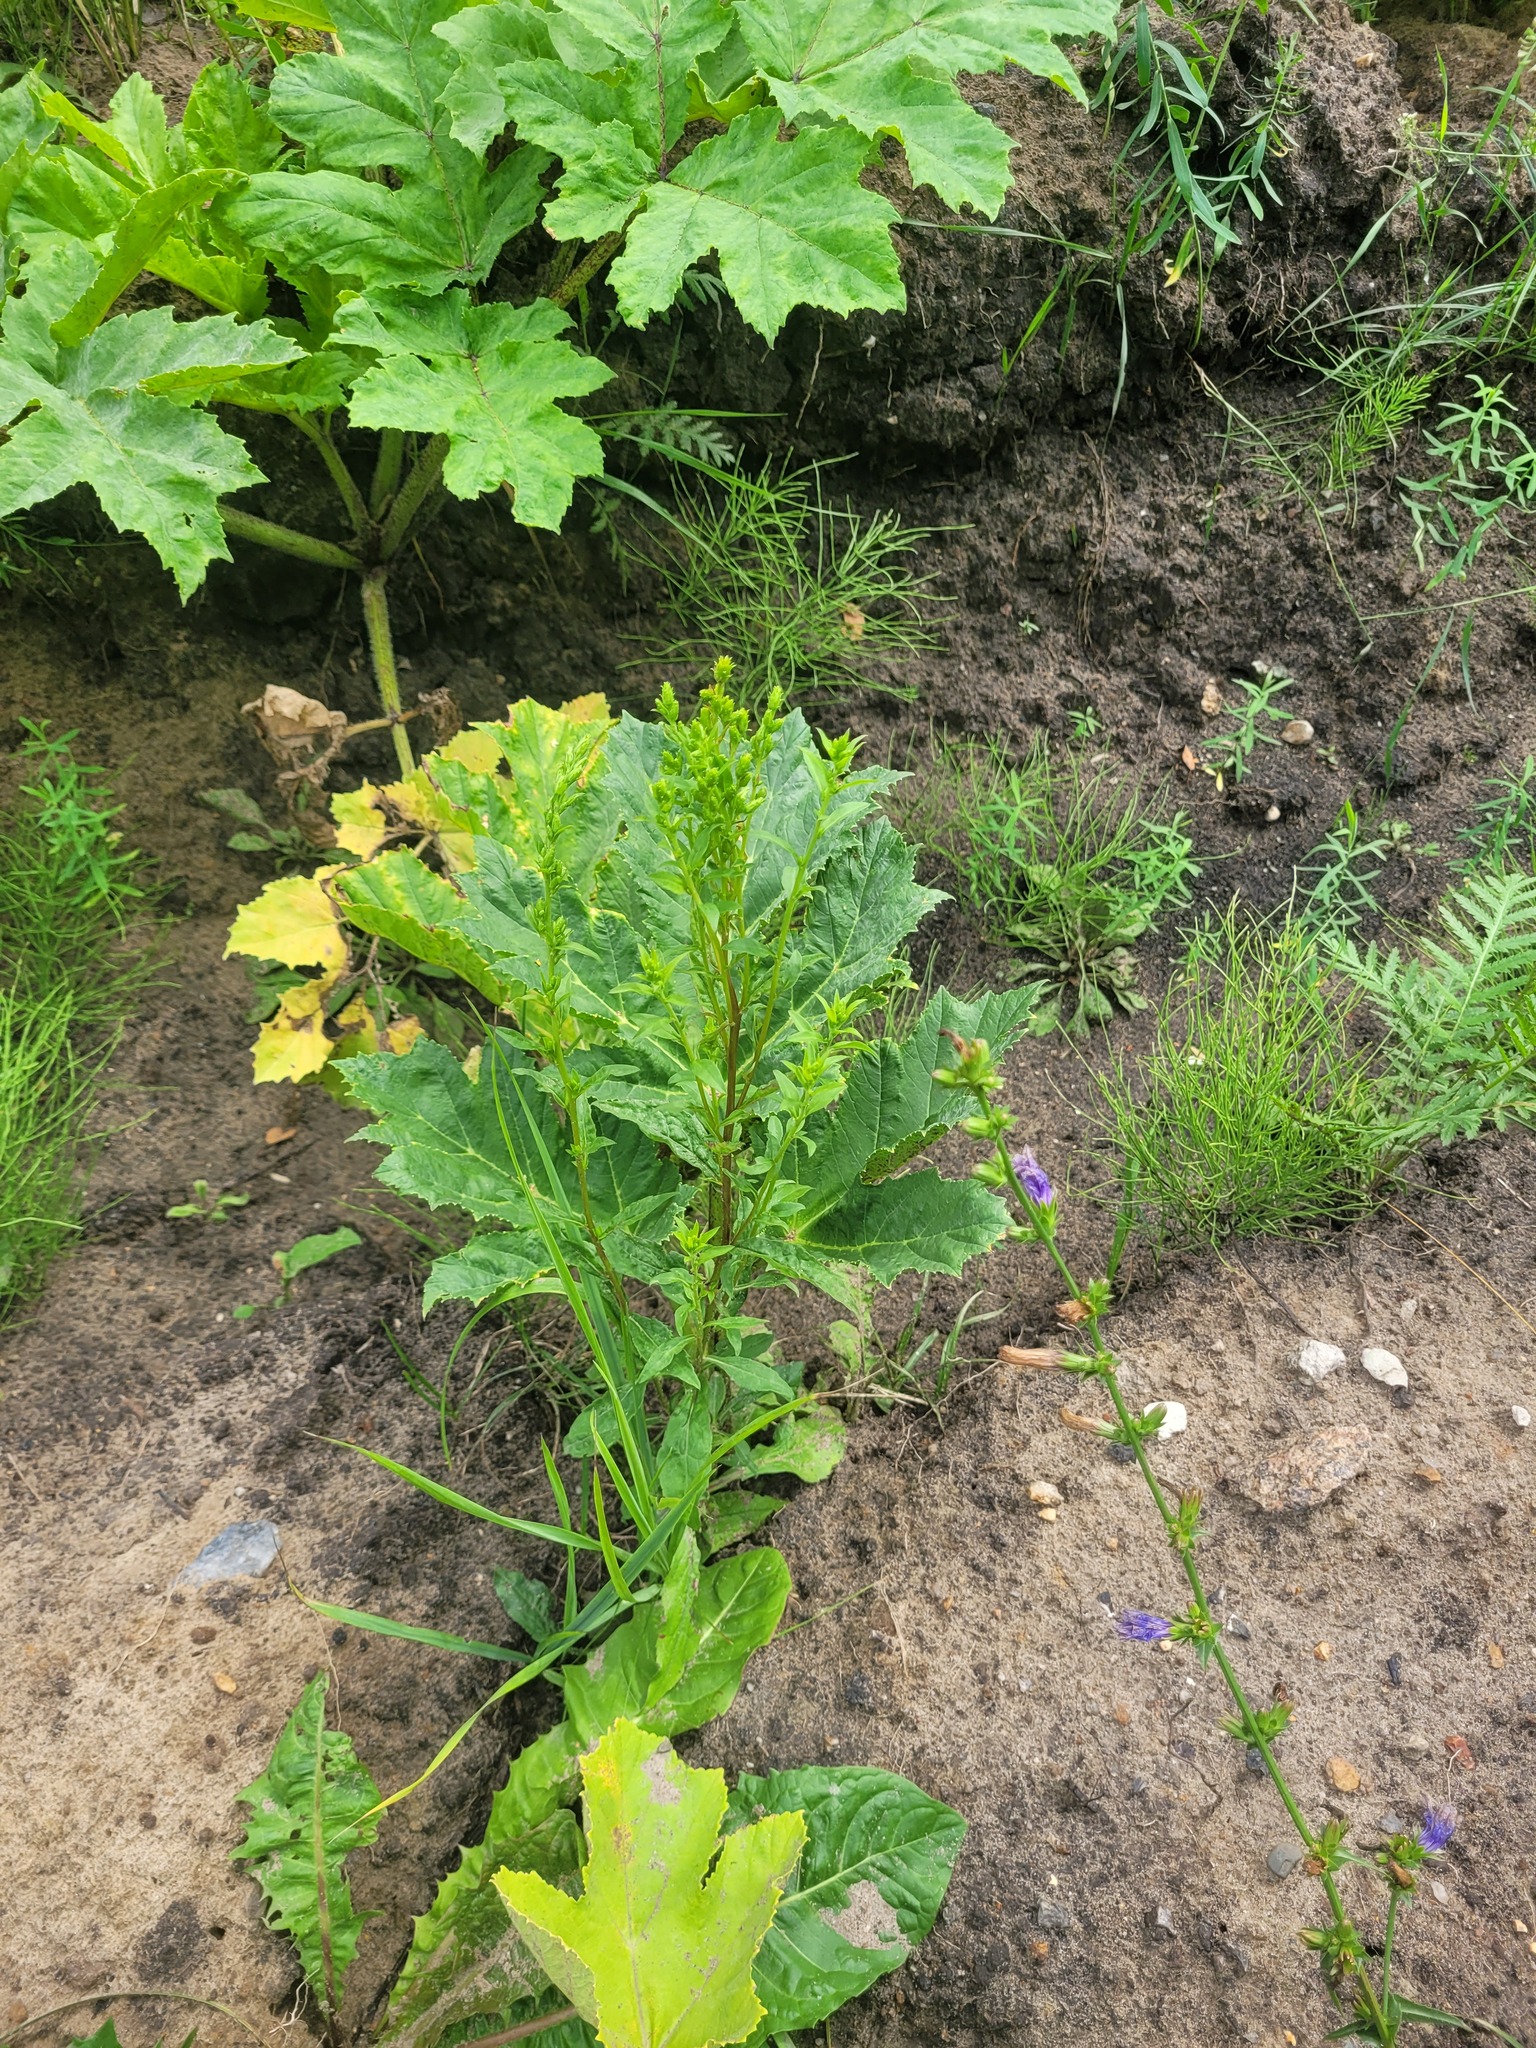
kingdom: Plantae
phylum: Tracheophyta
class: Magnoliopsida
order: Asterales
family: Asteraceae
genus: Solidago
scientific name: Solidago virgaurea
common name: Goldenrod
